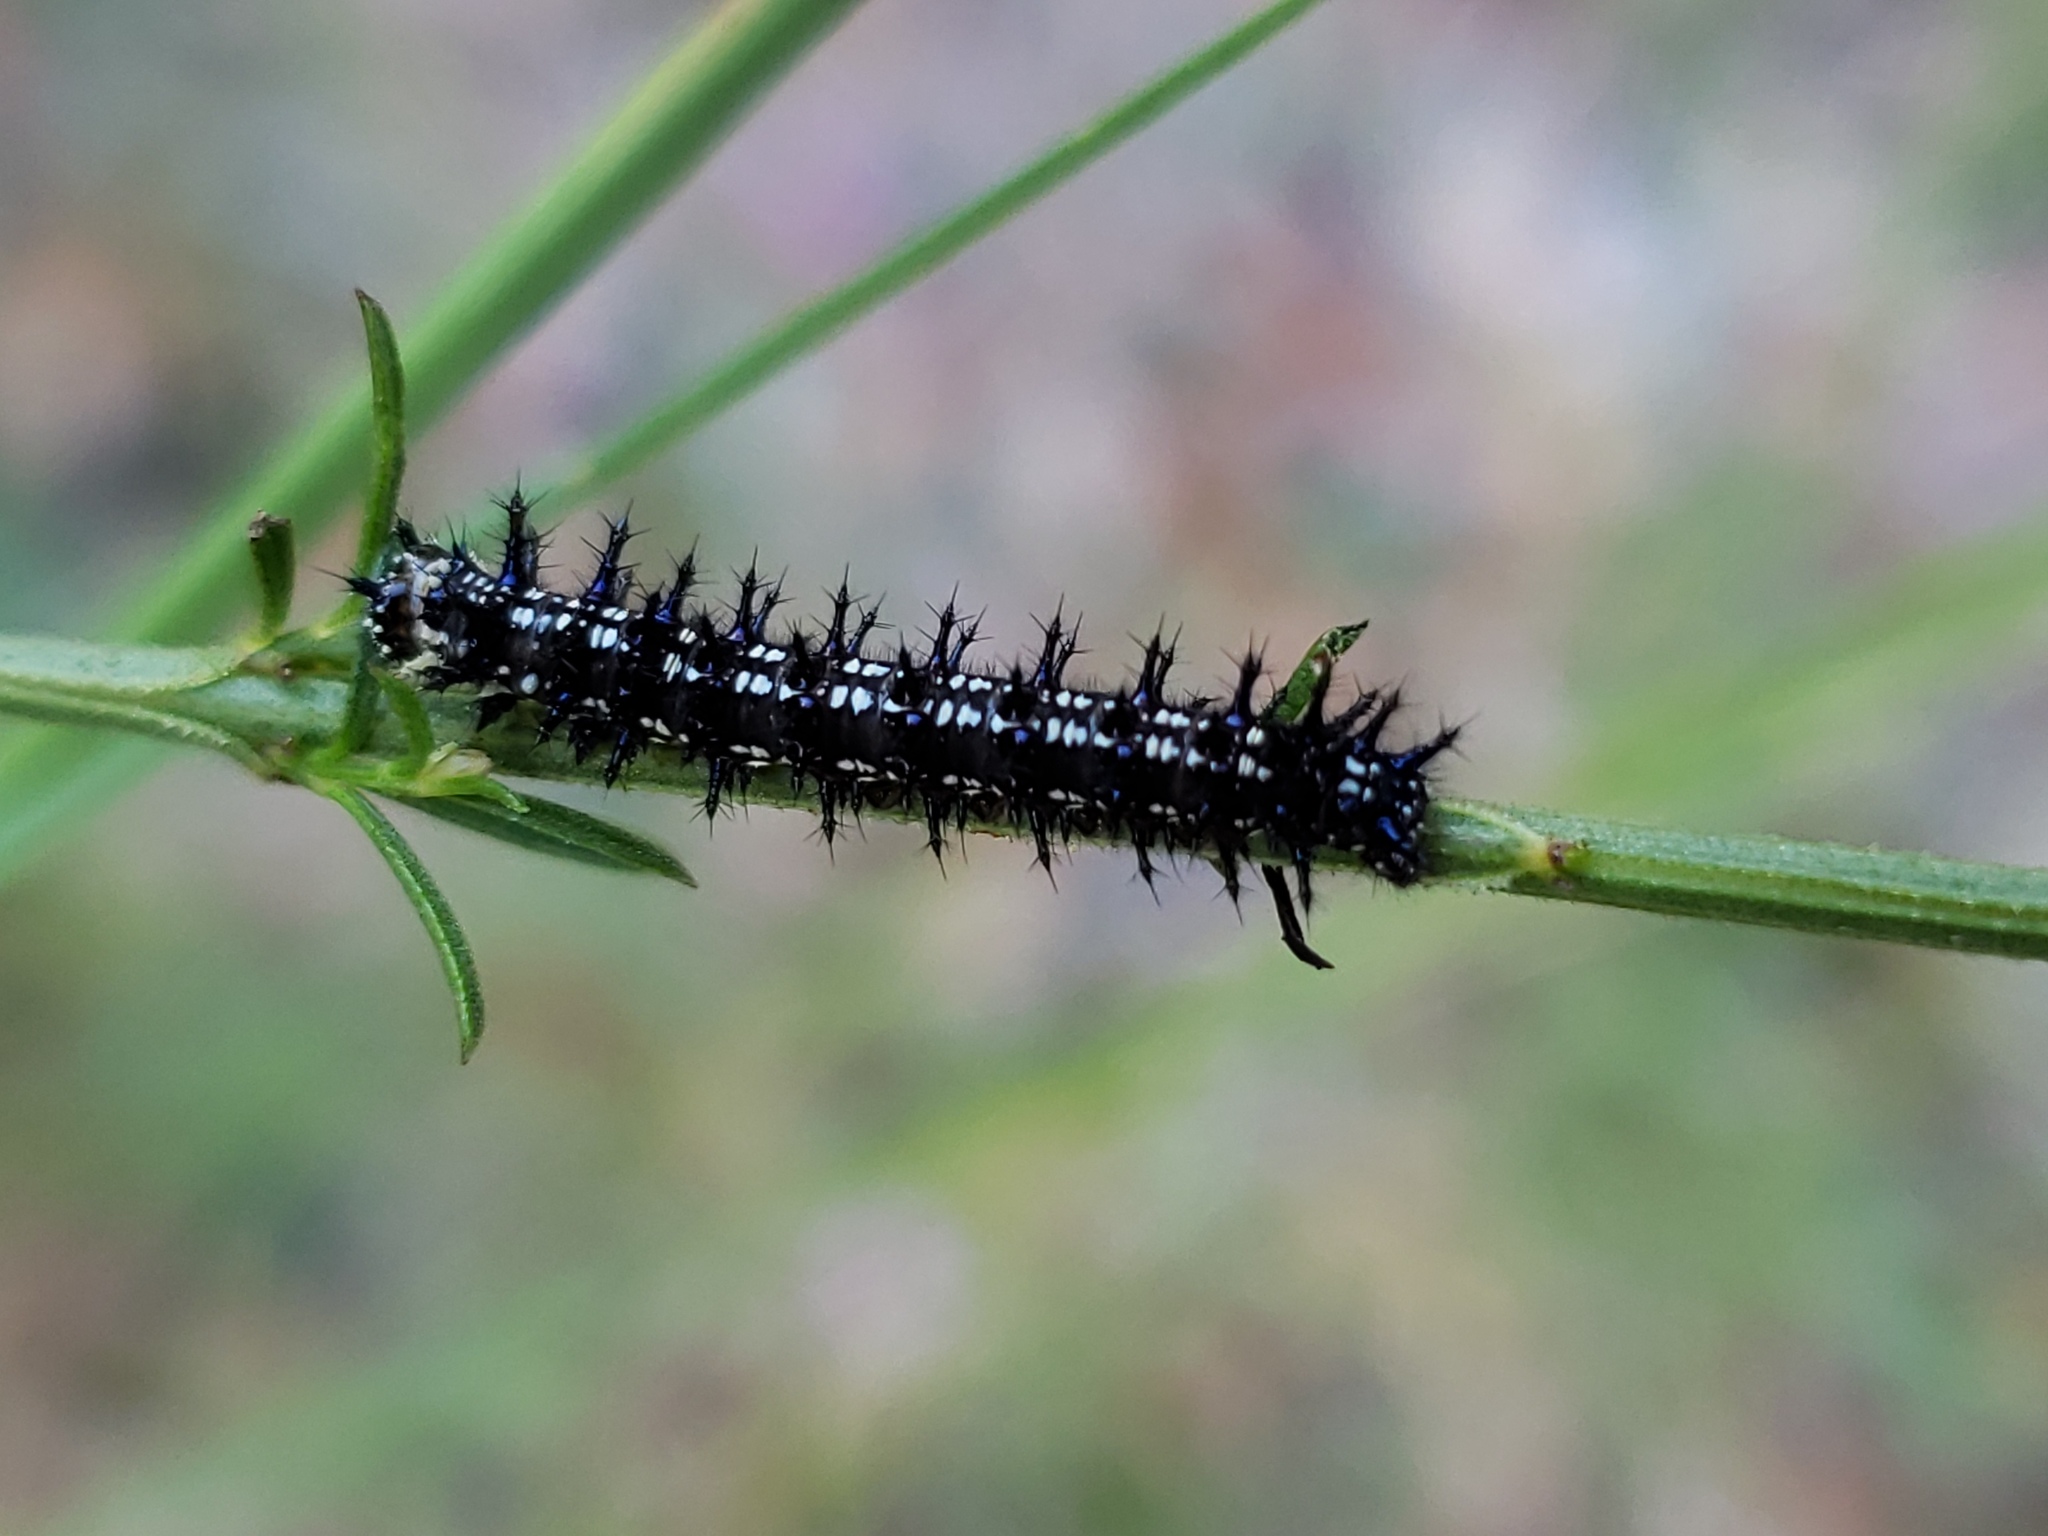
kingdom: Animalia
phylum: Arthropoda
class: Insecta
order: Lepidoptera
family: Nymphalidae
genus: Junonia
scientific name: Junonia coenia
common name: Common buckeye
